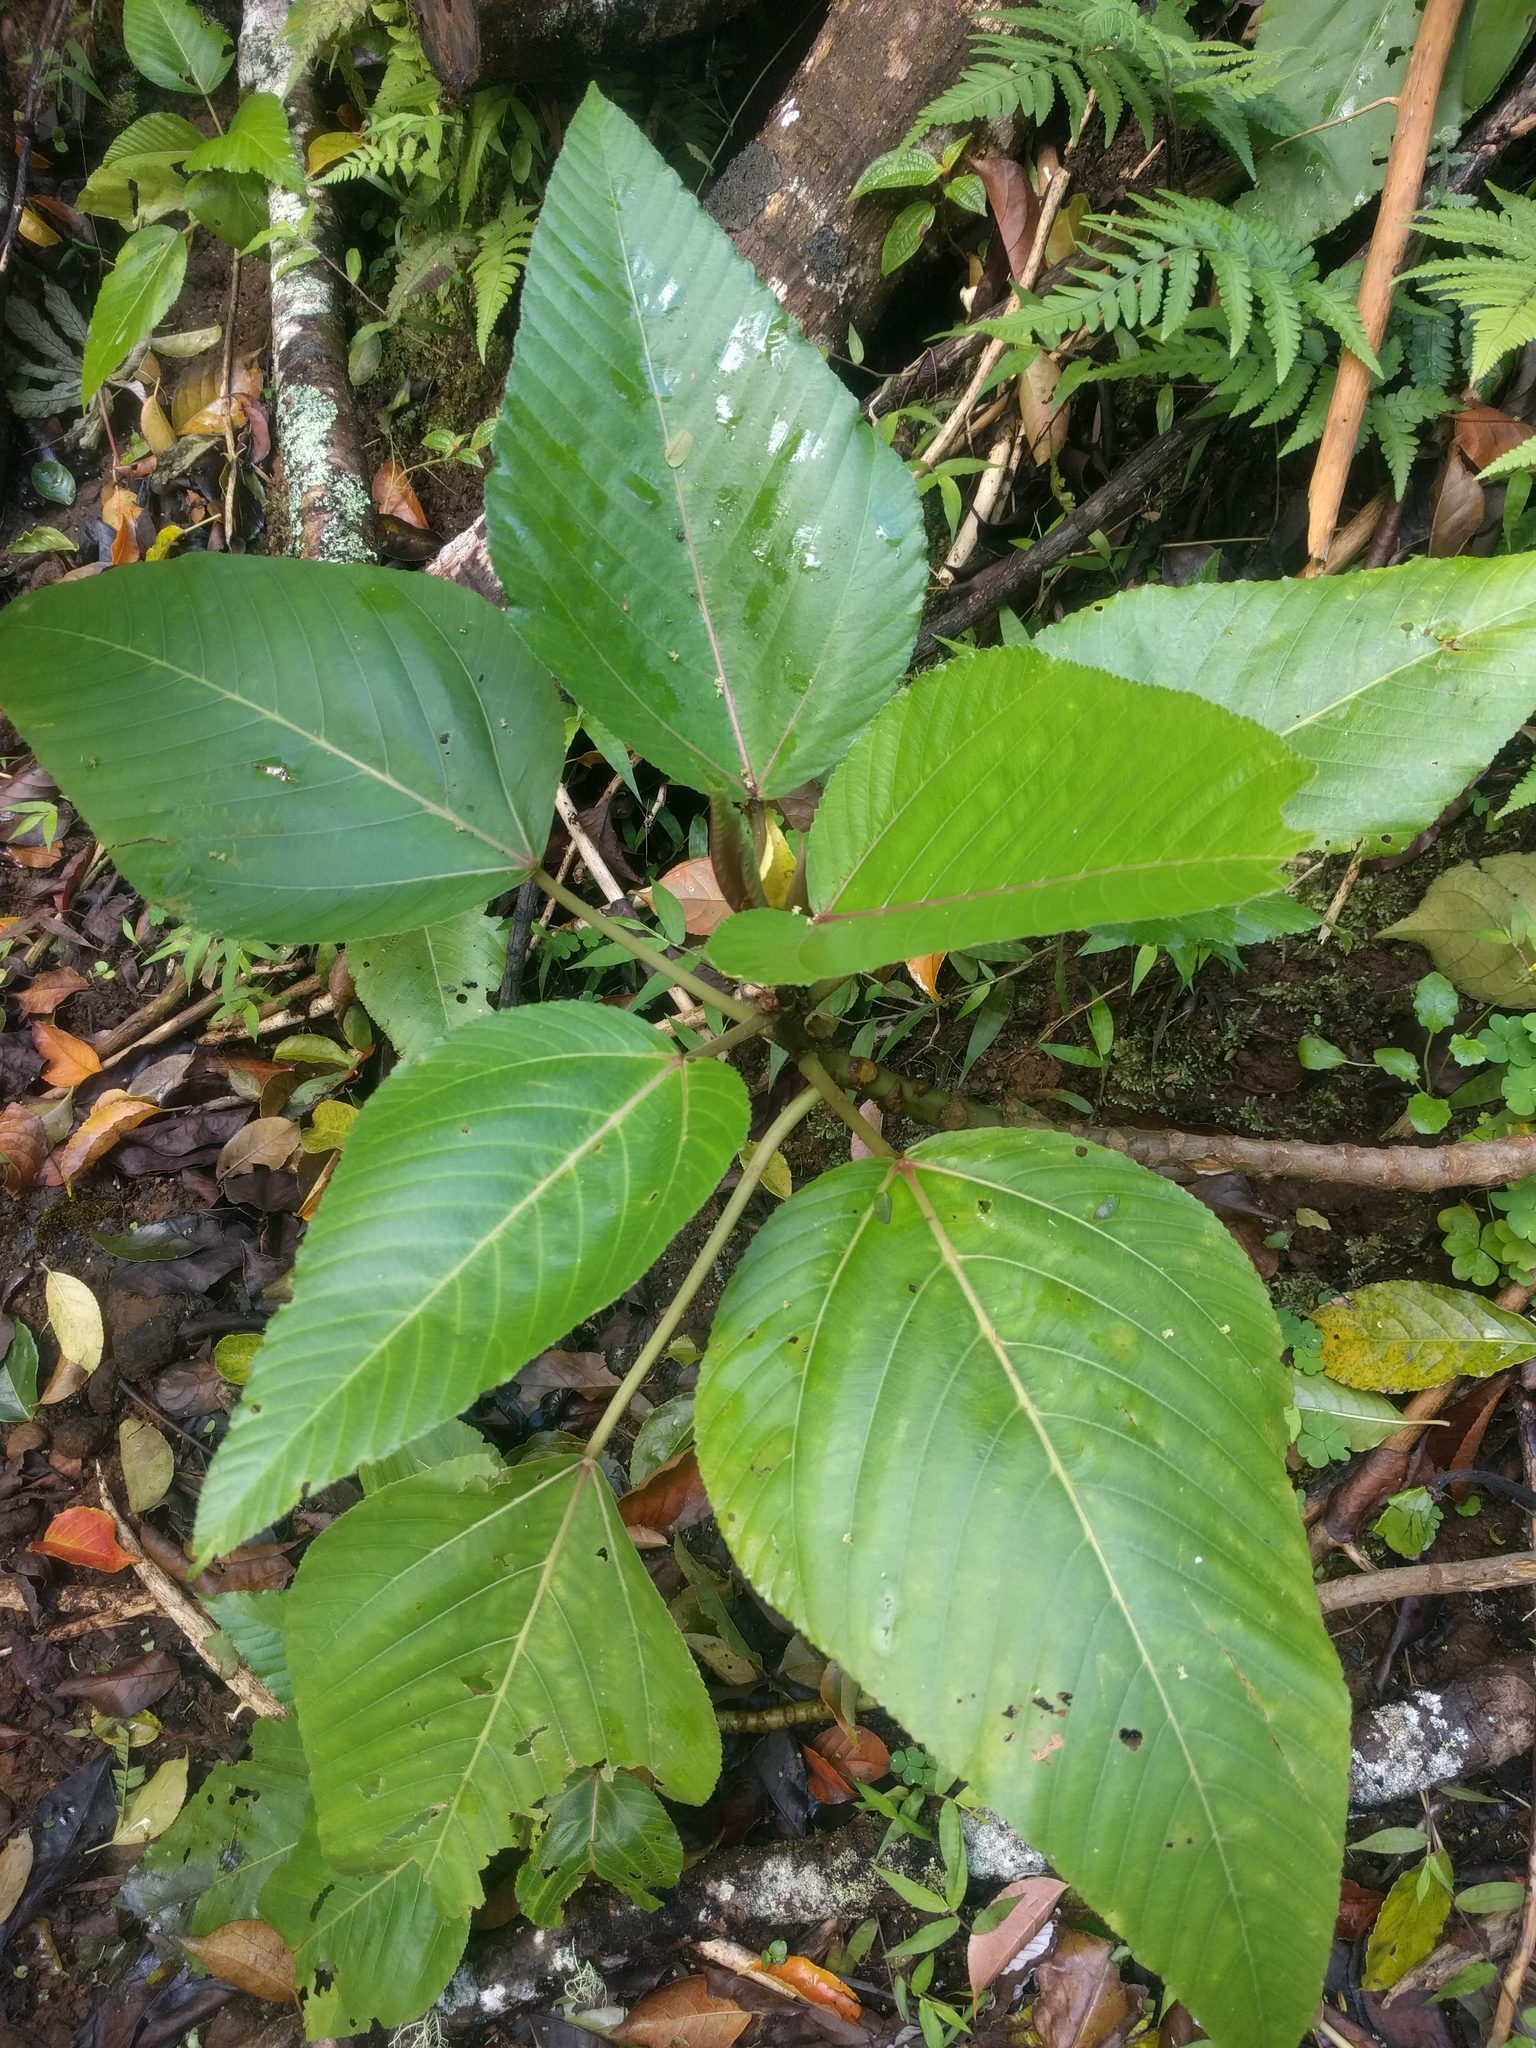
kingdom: Plantae
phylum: Tracheophyta
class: Magnoliopsida
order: Rosales
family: Urticaceae
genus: Touchardia
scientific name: Touchardia latifolia
